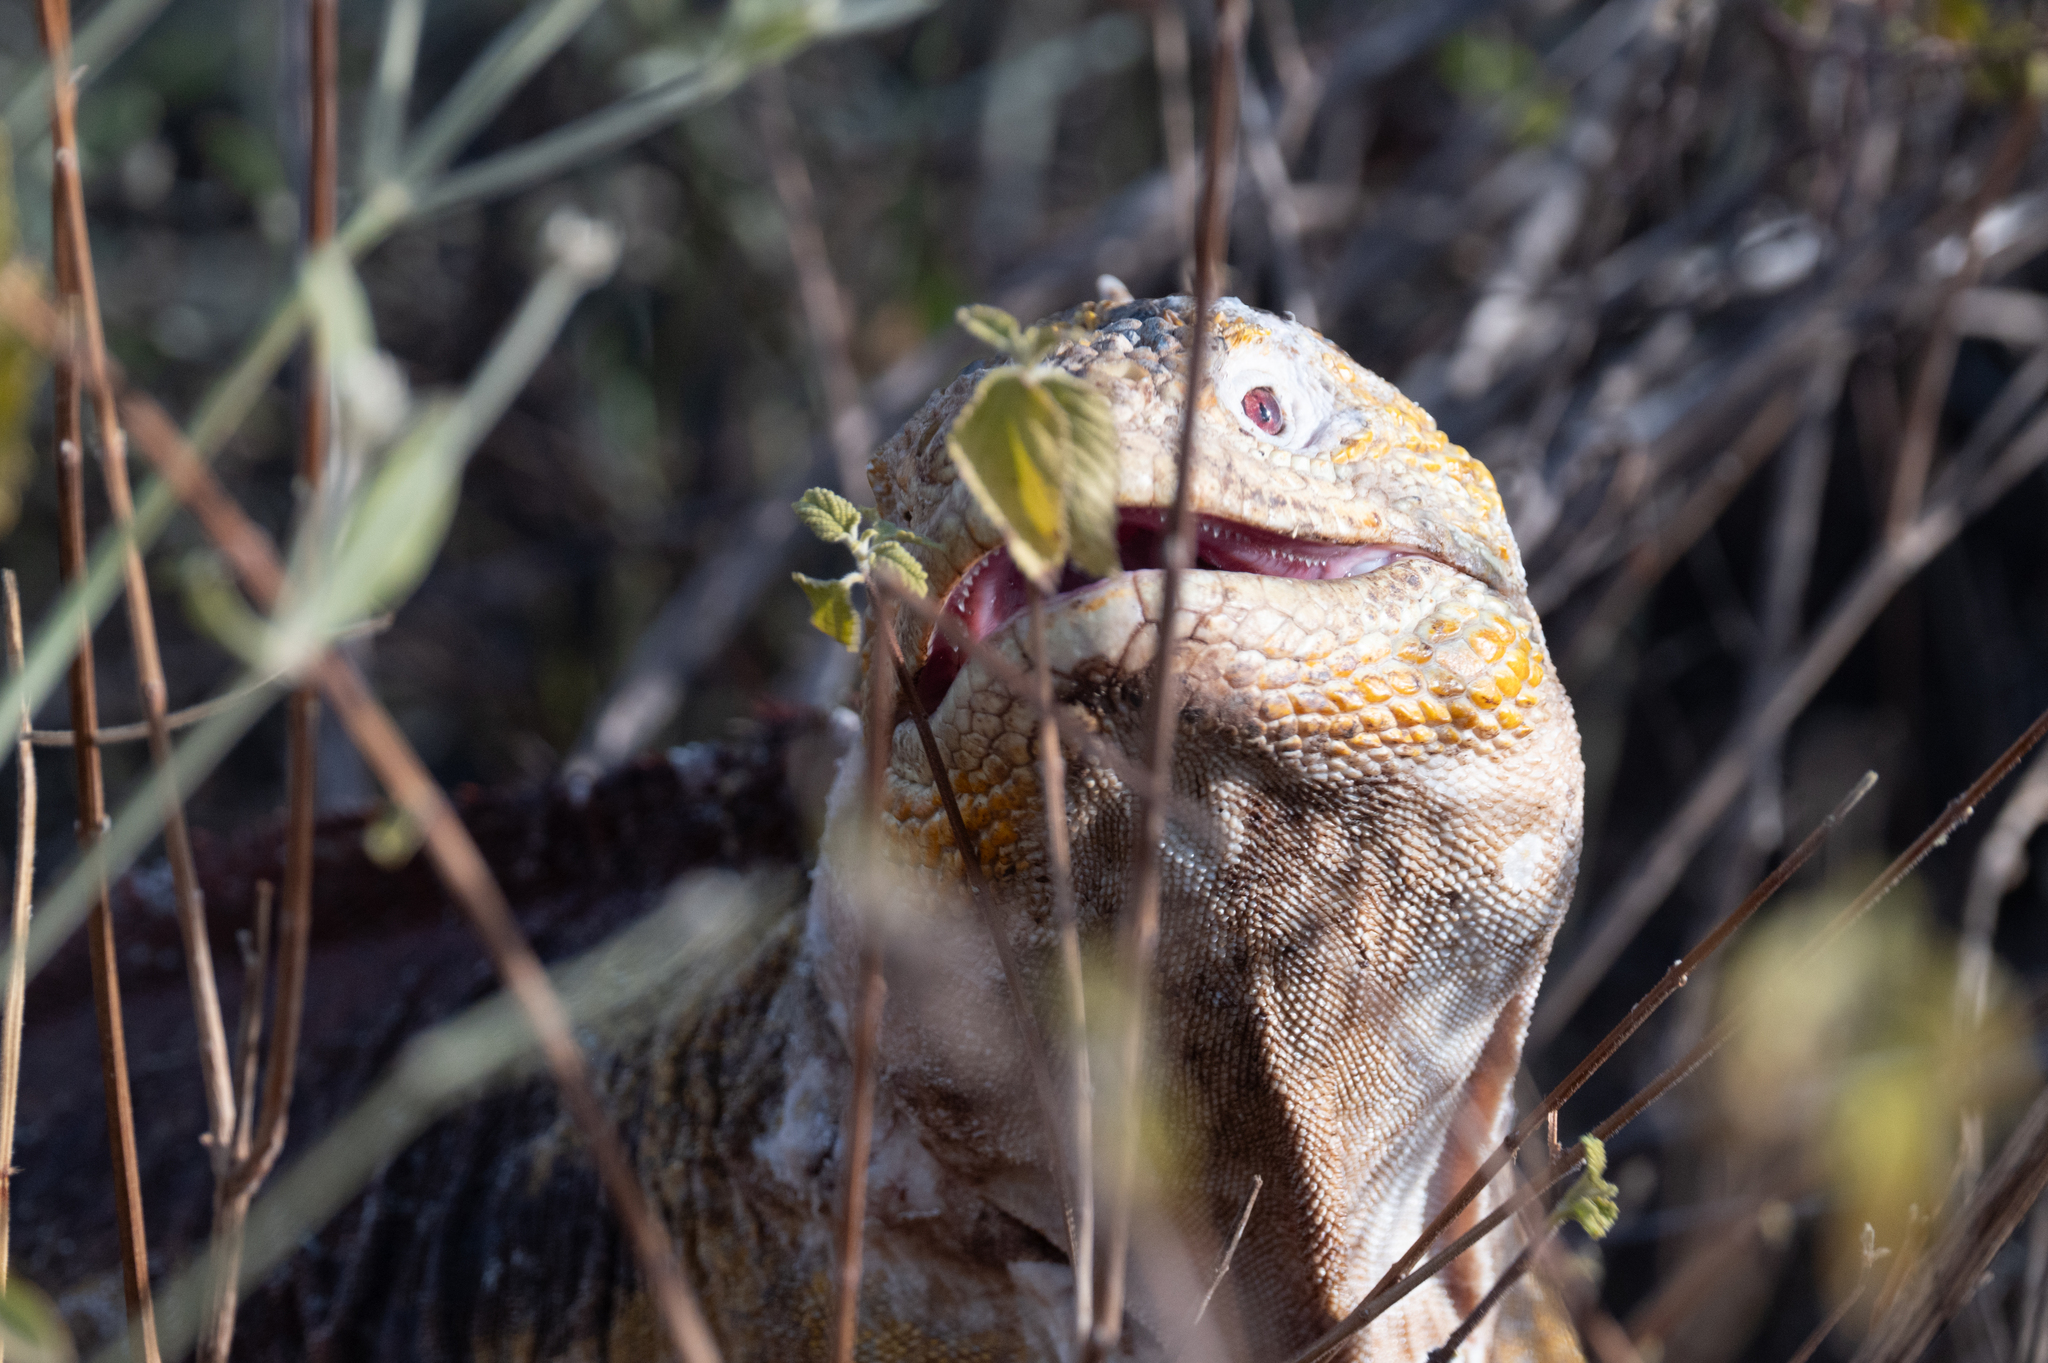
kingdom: Animalia
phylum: Chordata
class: Squamata
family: Iguanidae
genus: Conolophus
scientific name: Conolophus subcristatus
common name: Galapagos land iguana
